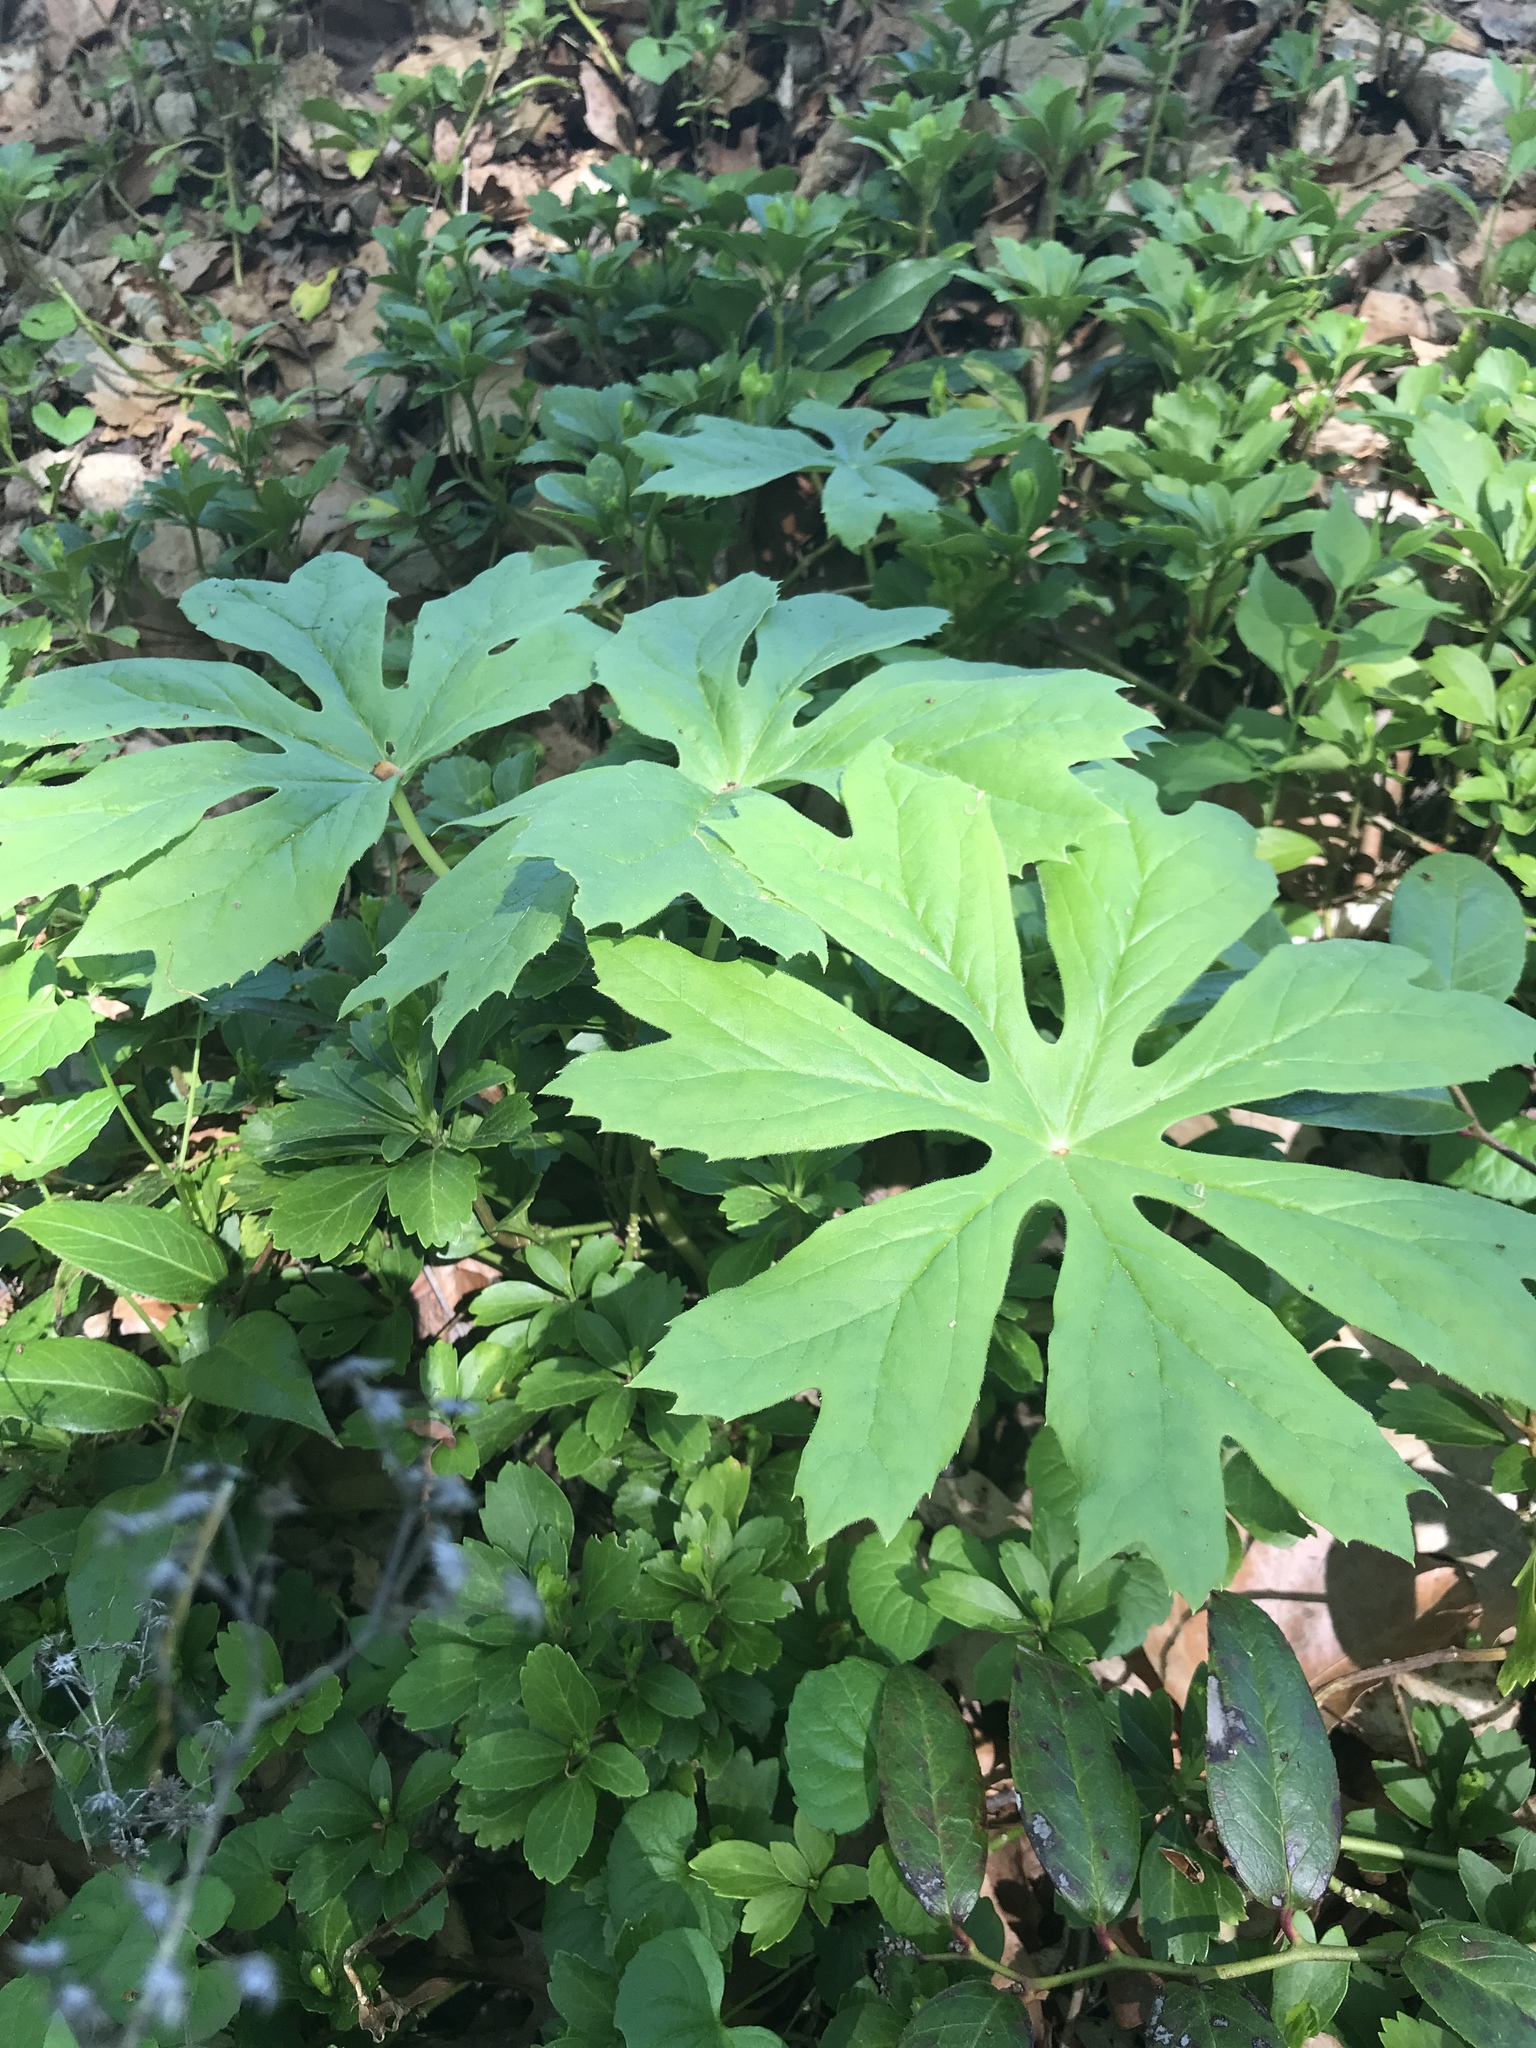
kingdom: Plantae
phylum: Tracheophyta
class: Magnoliopsida
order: Ranunculales
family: Berberidaceae
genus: Podophyllum
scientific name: Podophyllum peltatum
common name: Wild mandrake
